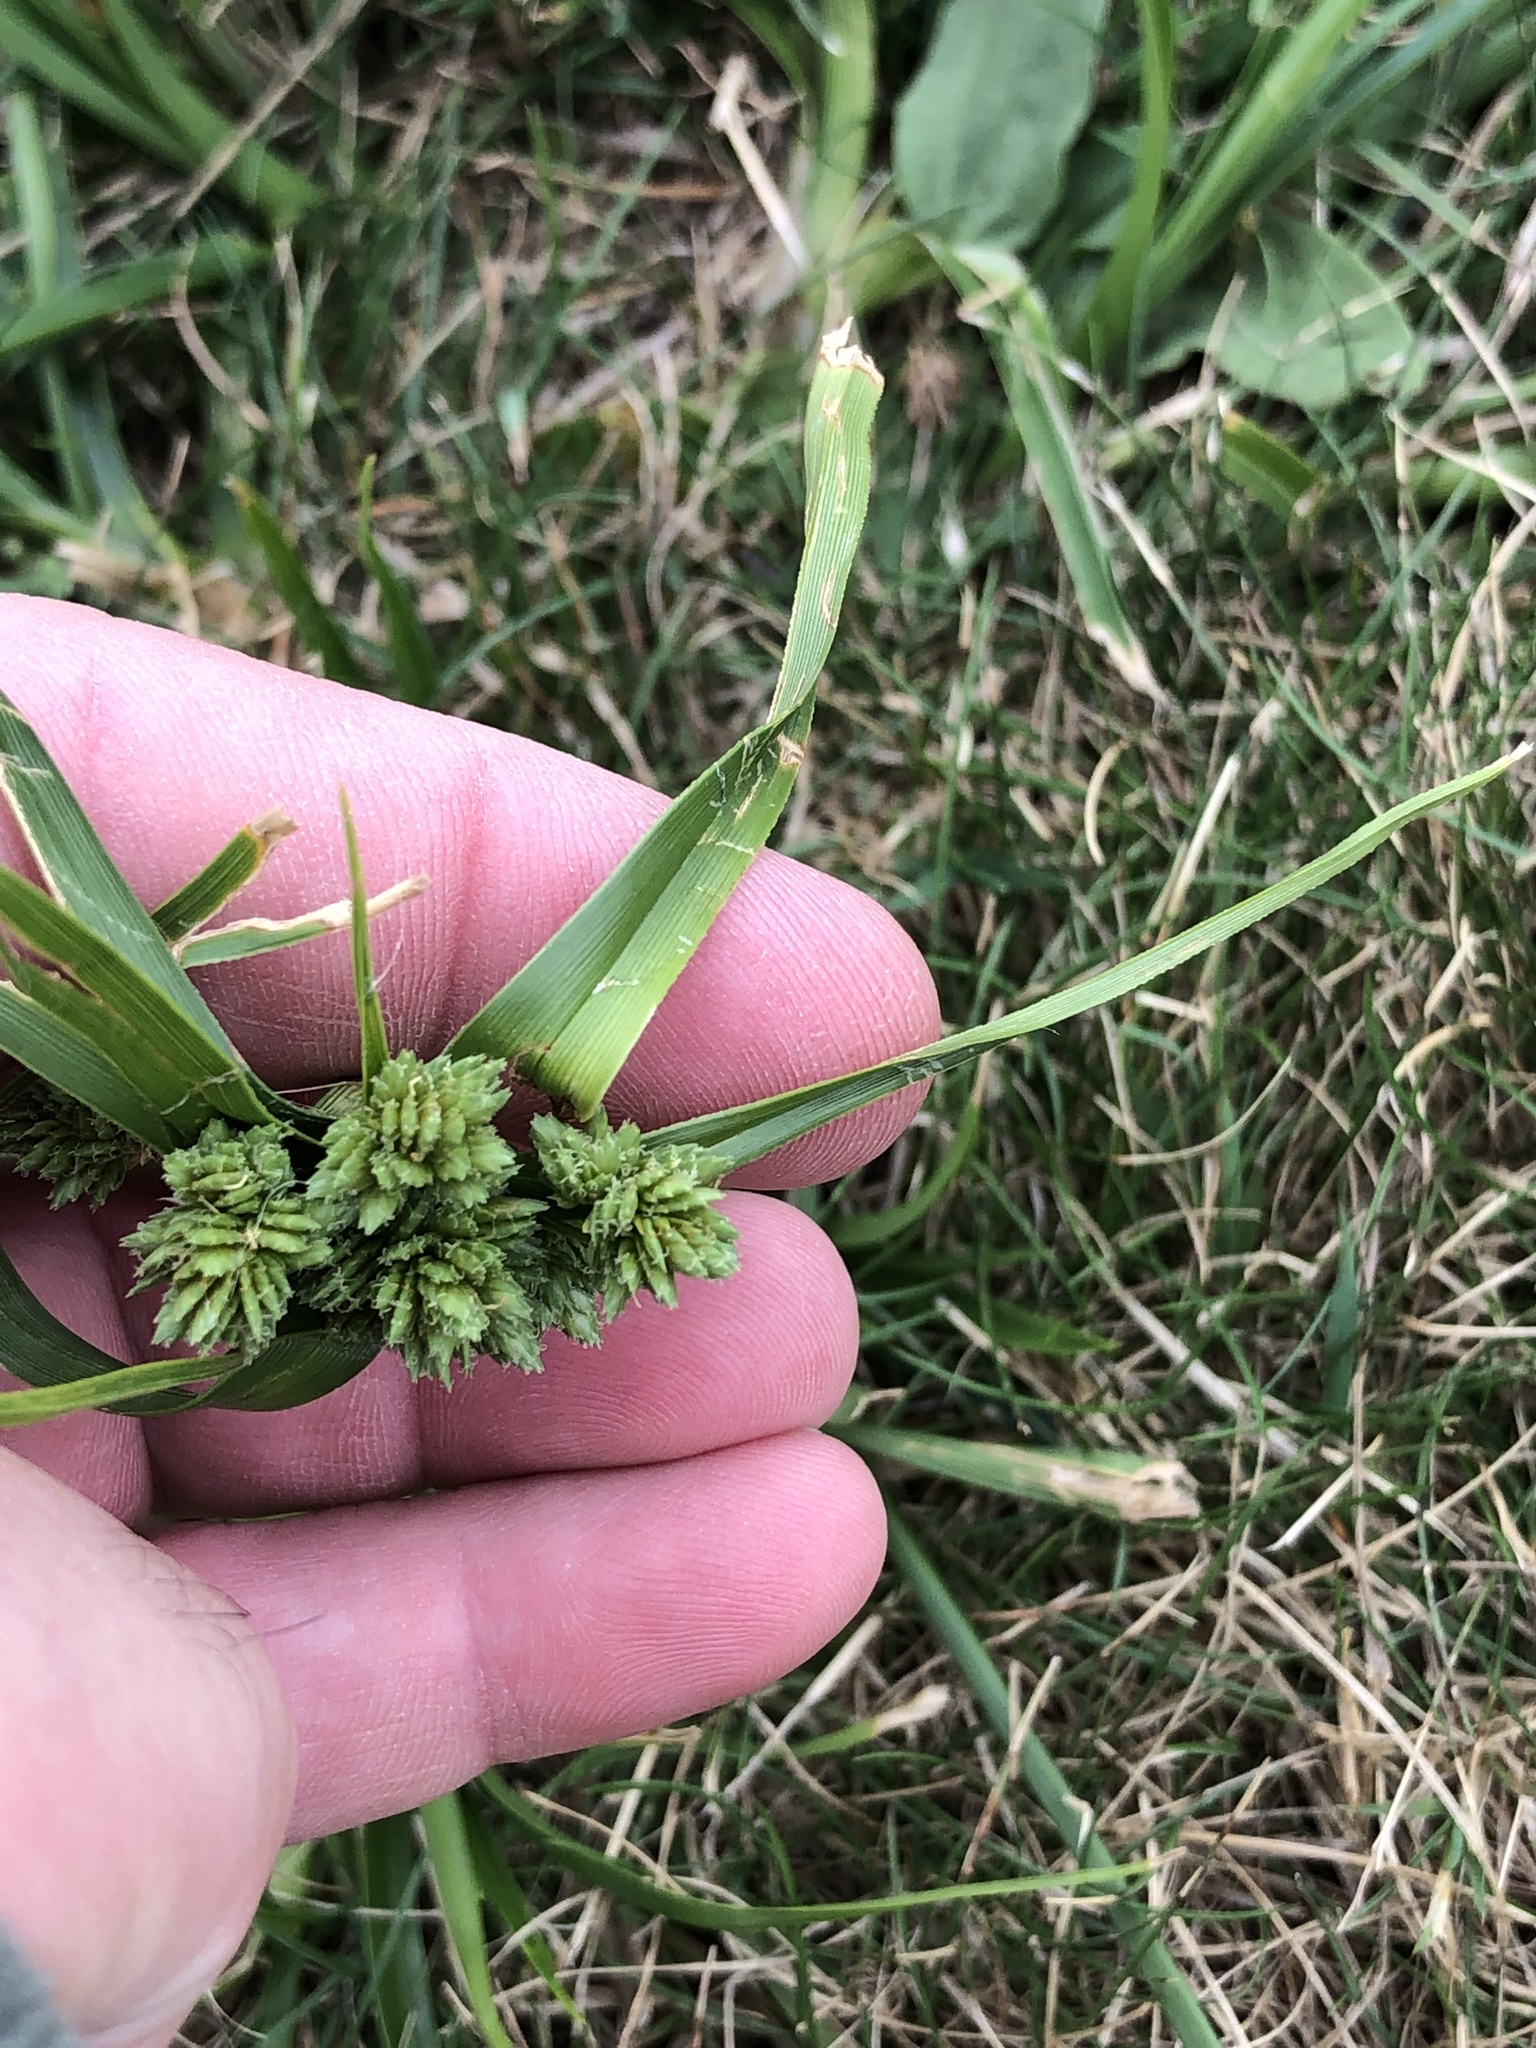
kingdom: Plantae
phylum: Tracheophyta
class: Liliopsida
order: Poales
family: Cyperaceae
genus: Cyperus
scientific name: Cyperus eragrostis
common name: Tall flatsedge
